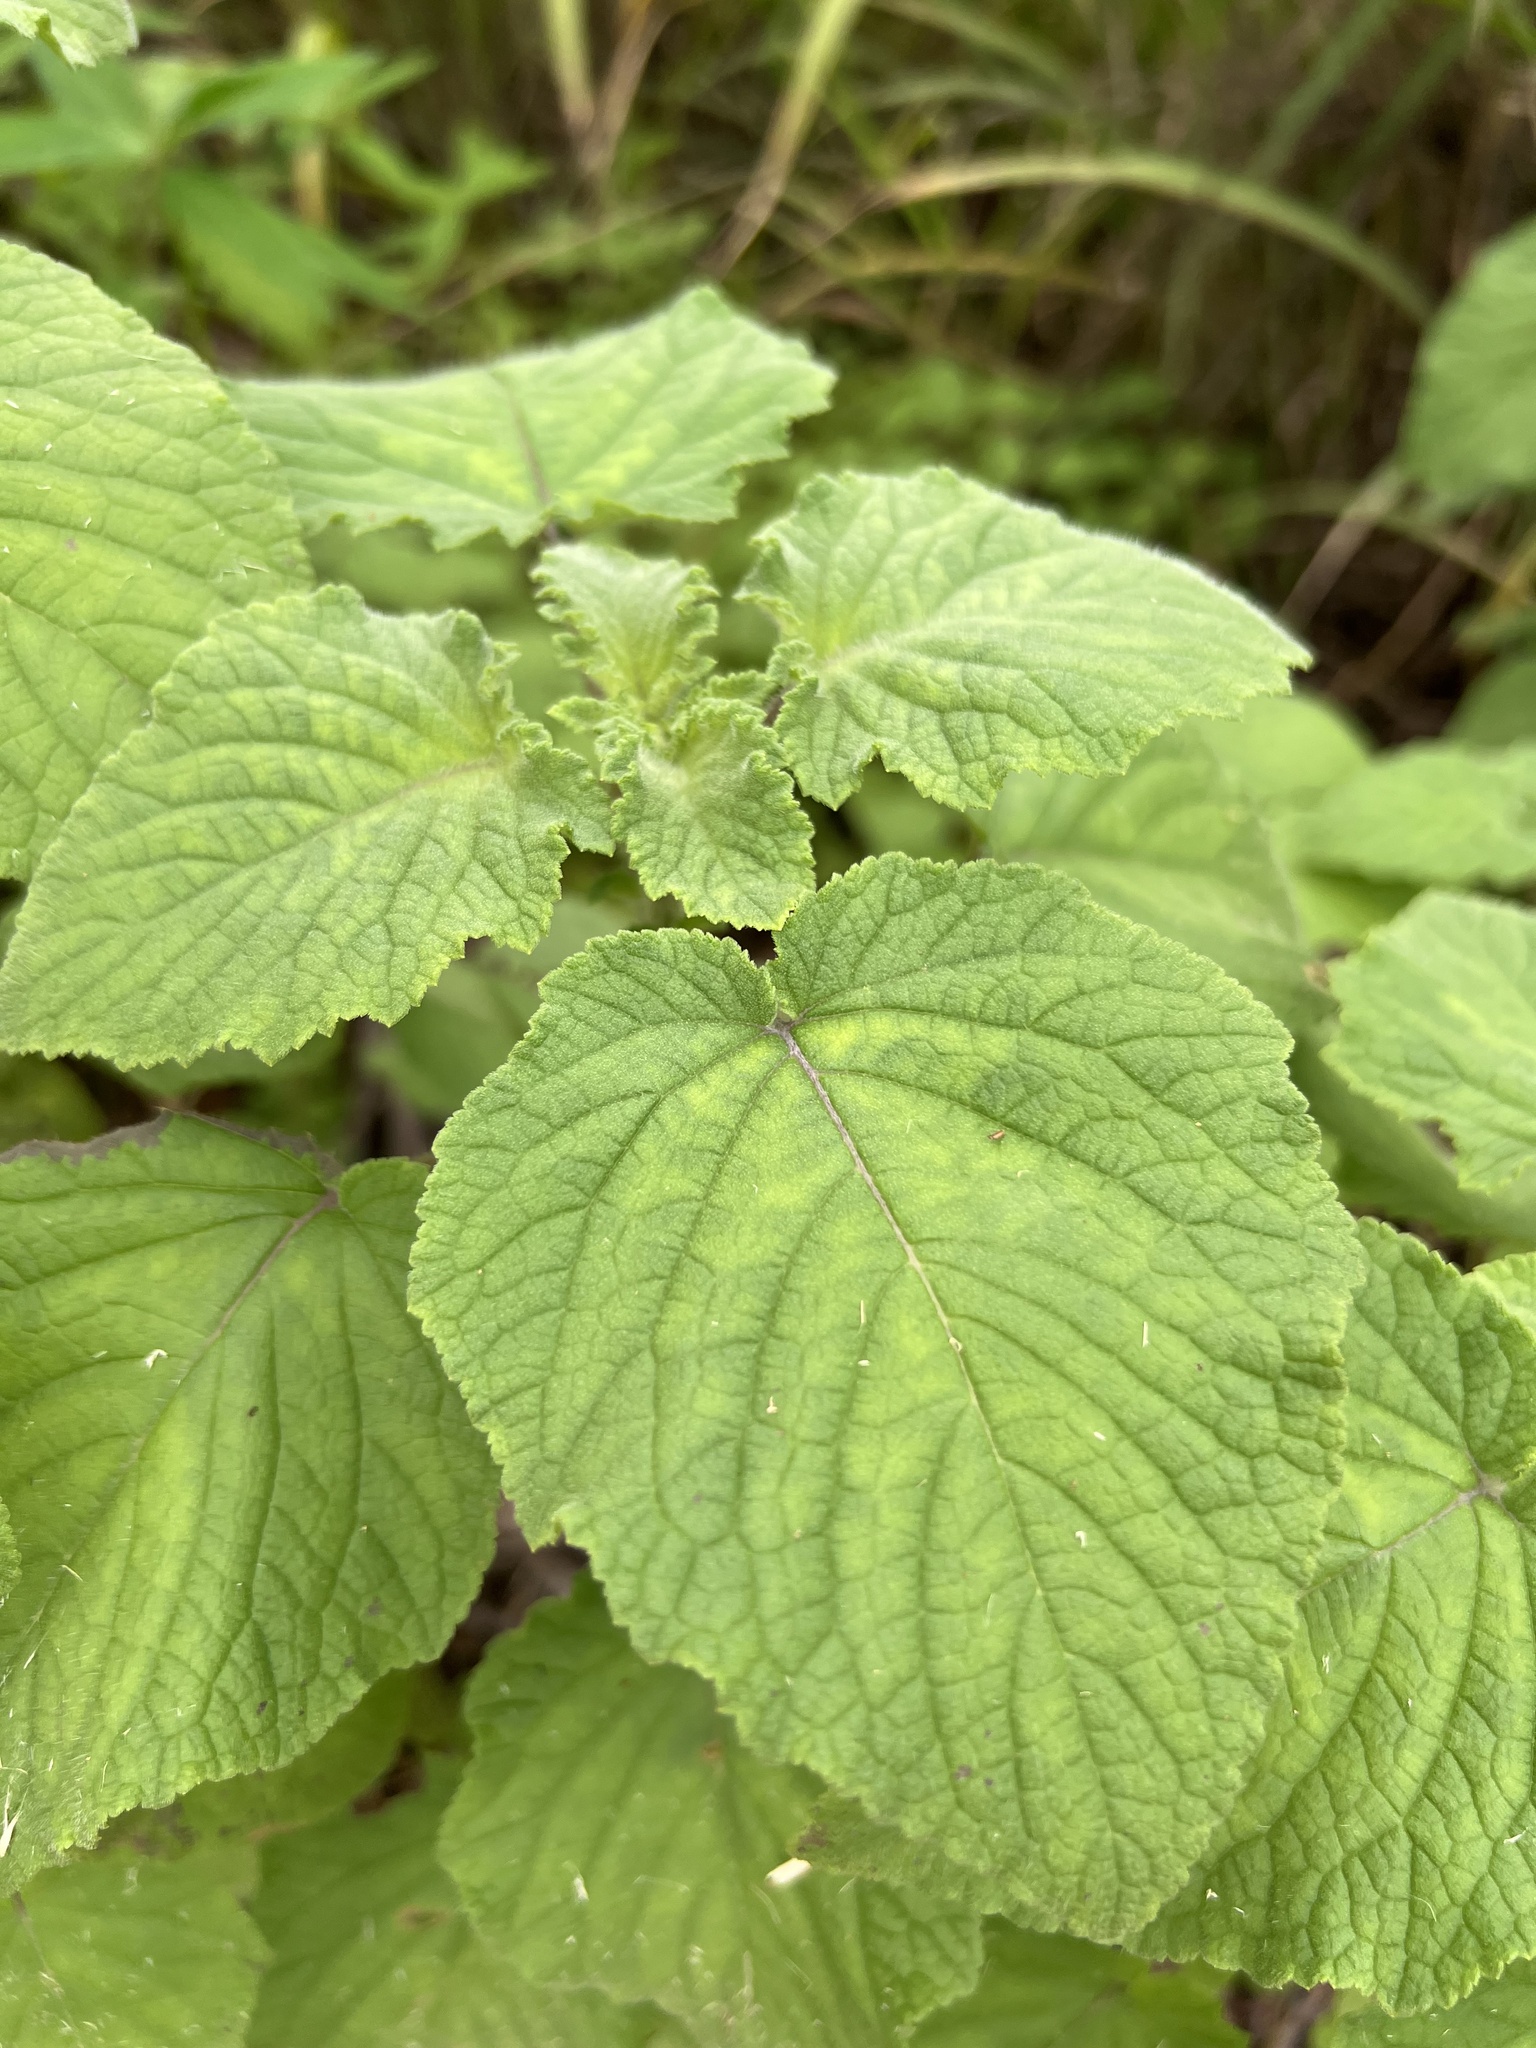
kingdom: Plantae
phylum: Tracheophyta
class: Magnoliopsida
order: Lamiales
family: Lamiaceae
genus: Mesosphaerum
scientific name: Mesosphaerum suaveolens
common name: Pignut
